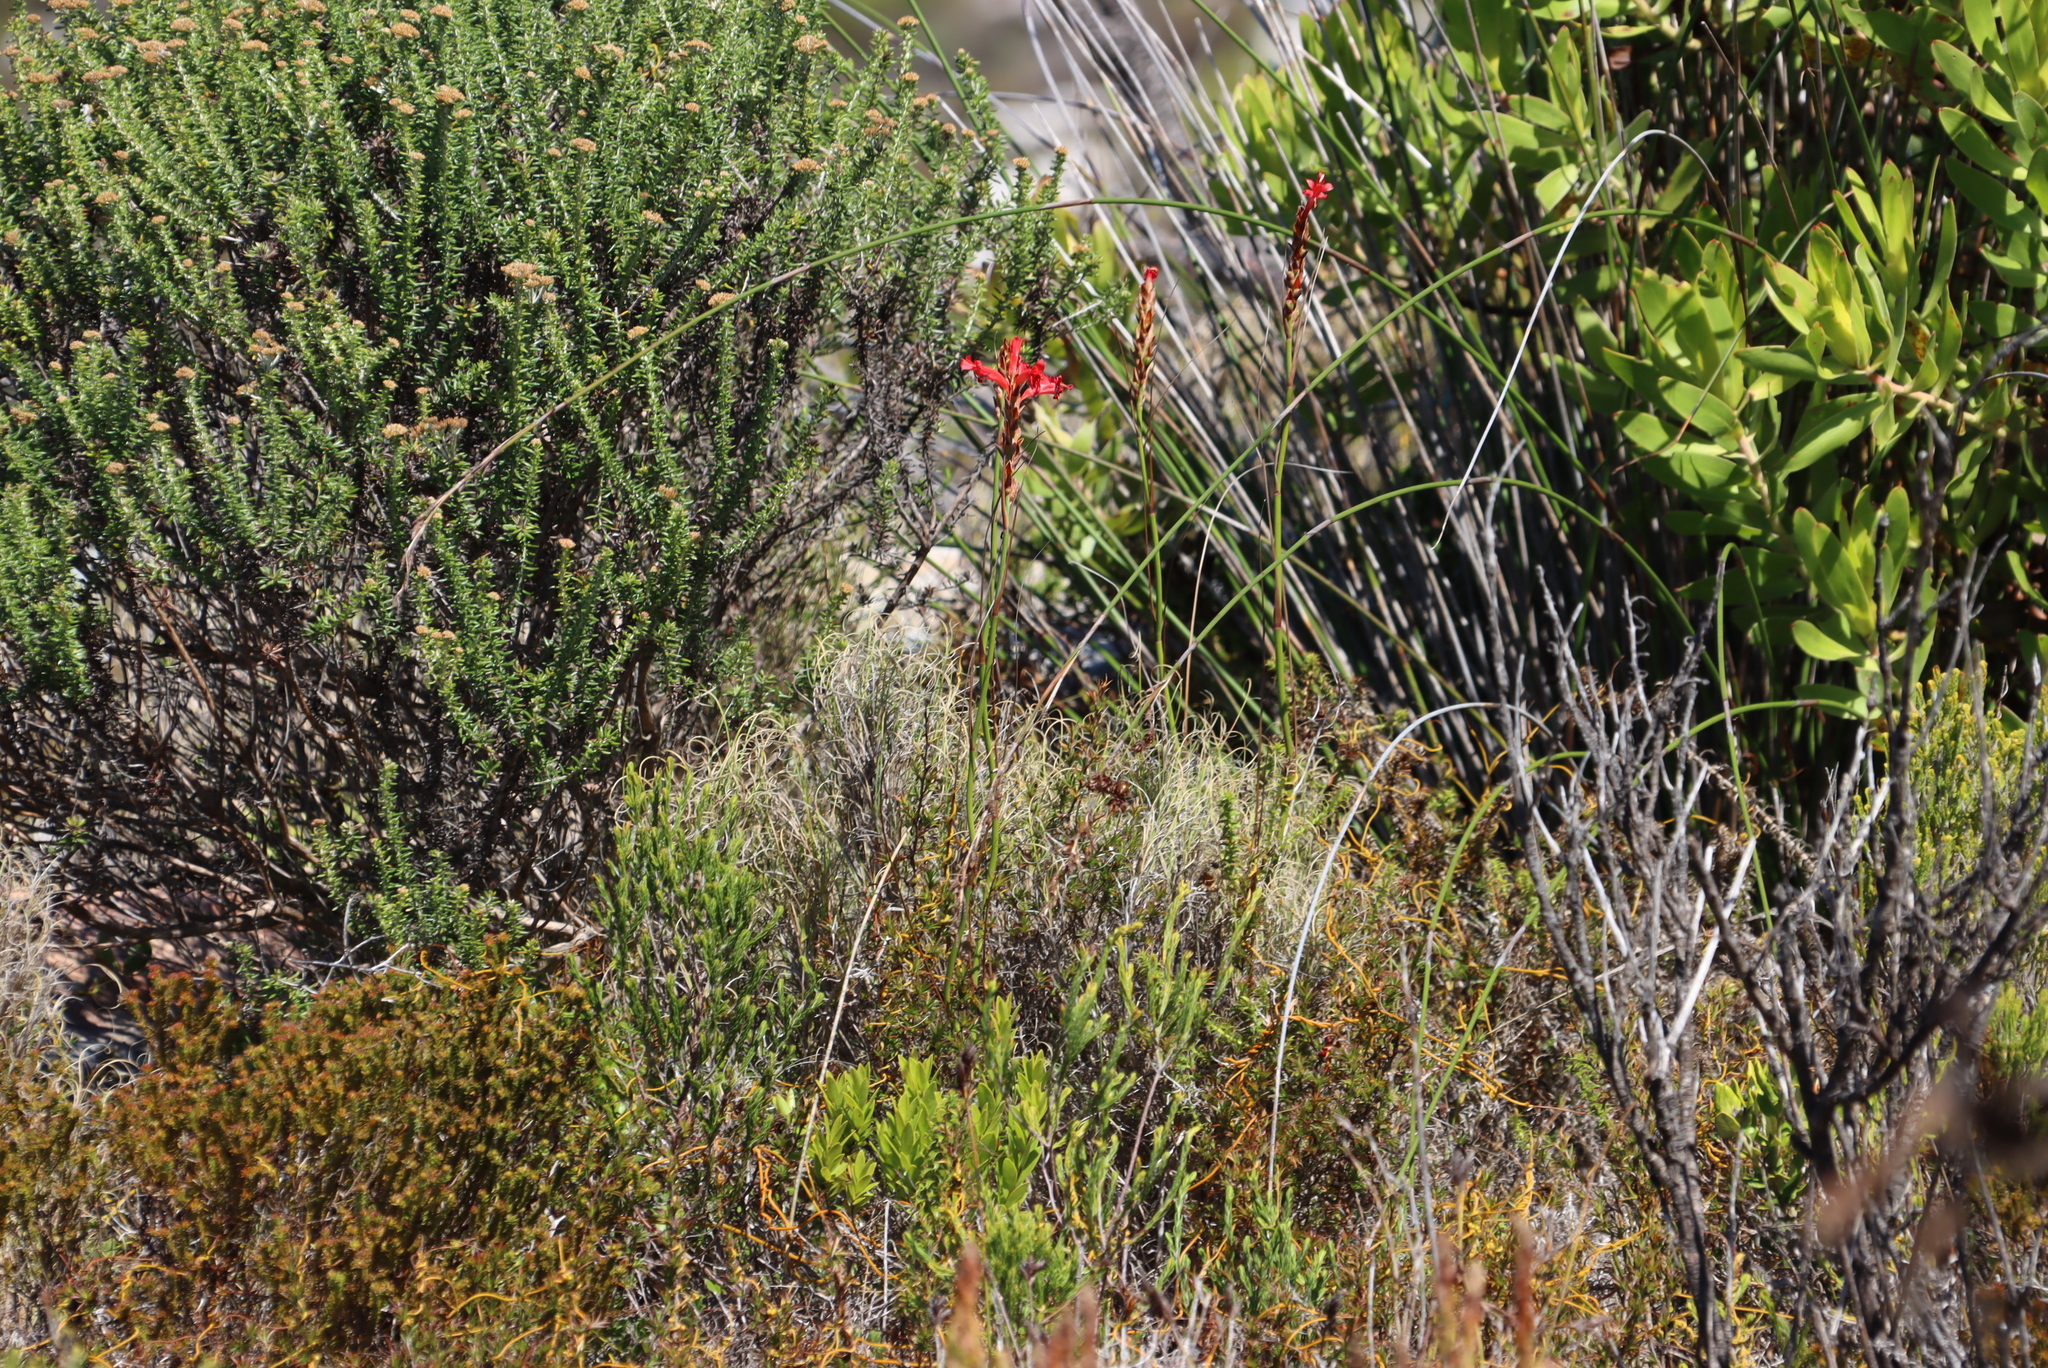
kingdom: Plantae
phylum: Tracheophyta
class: Liliopsida
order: Asparagales
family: Iridaceae
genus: Tritoniopsis
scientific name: Tritoniopsis triticea
